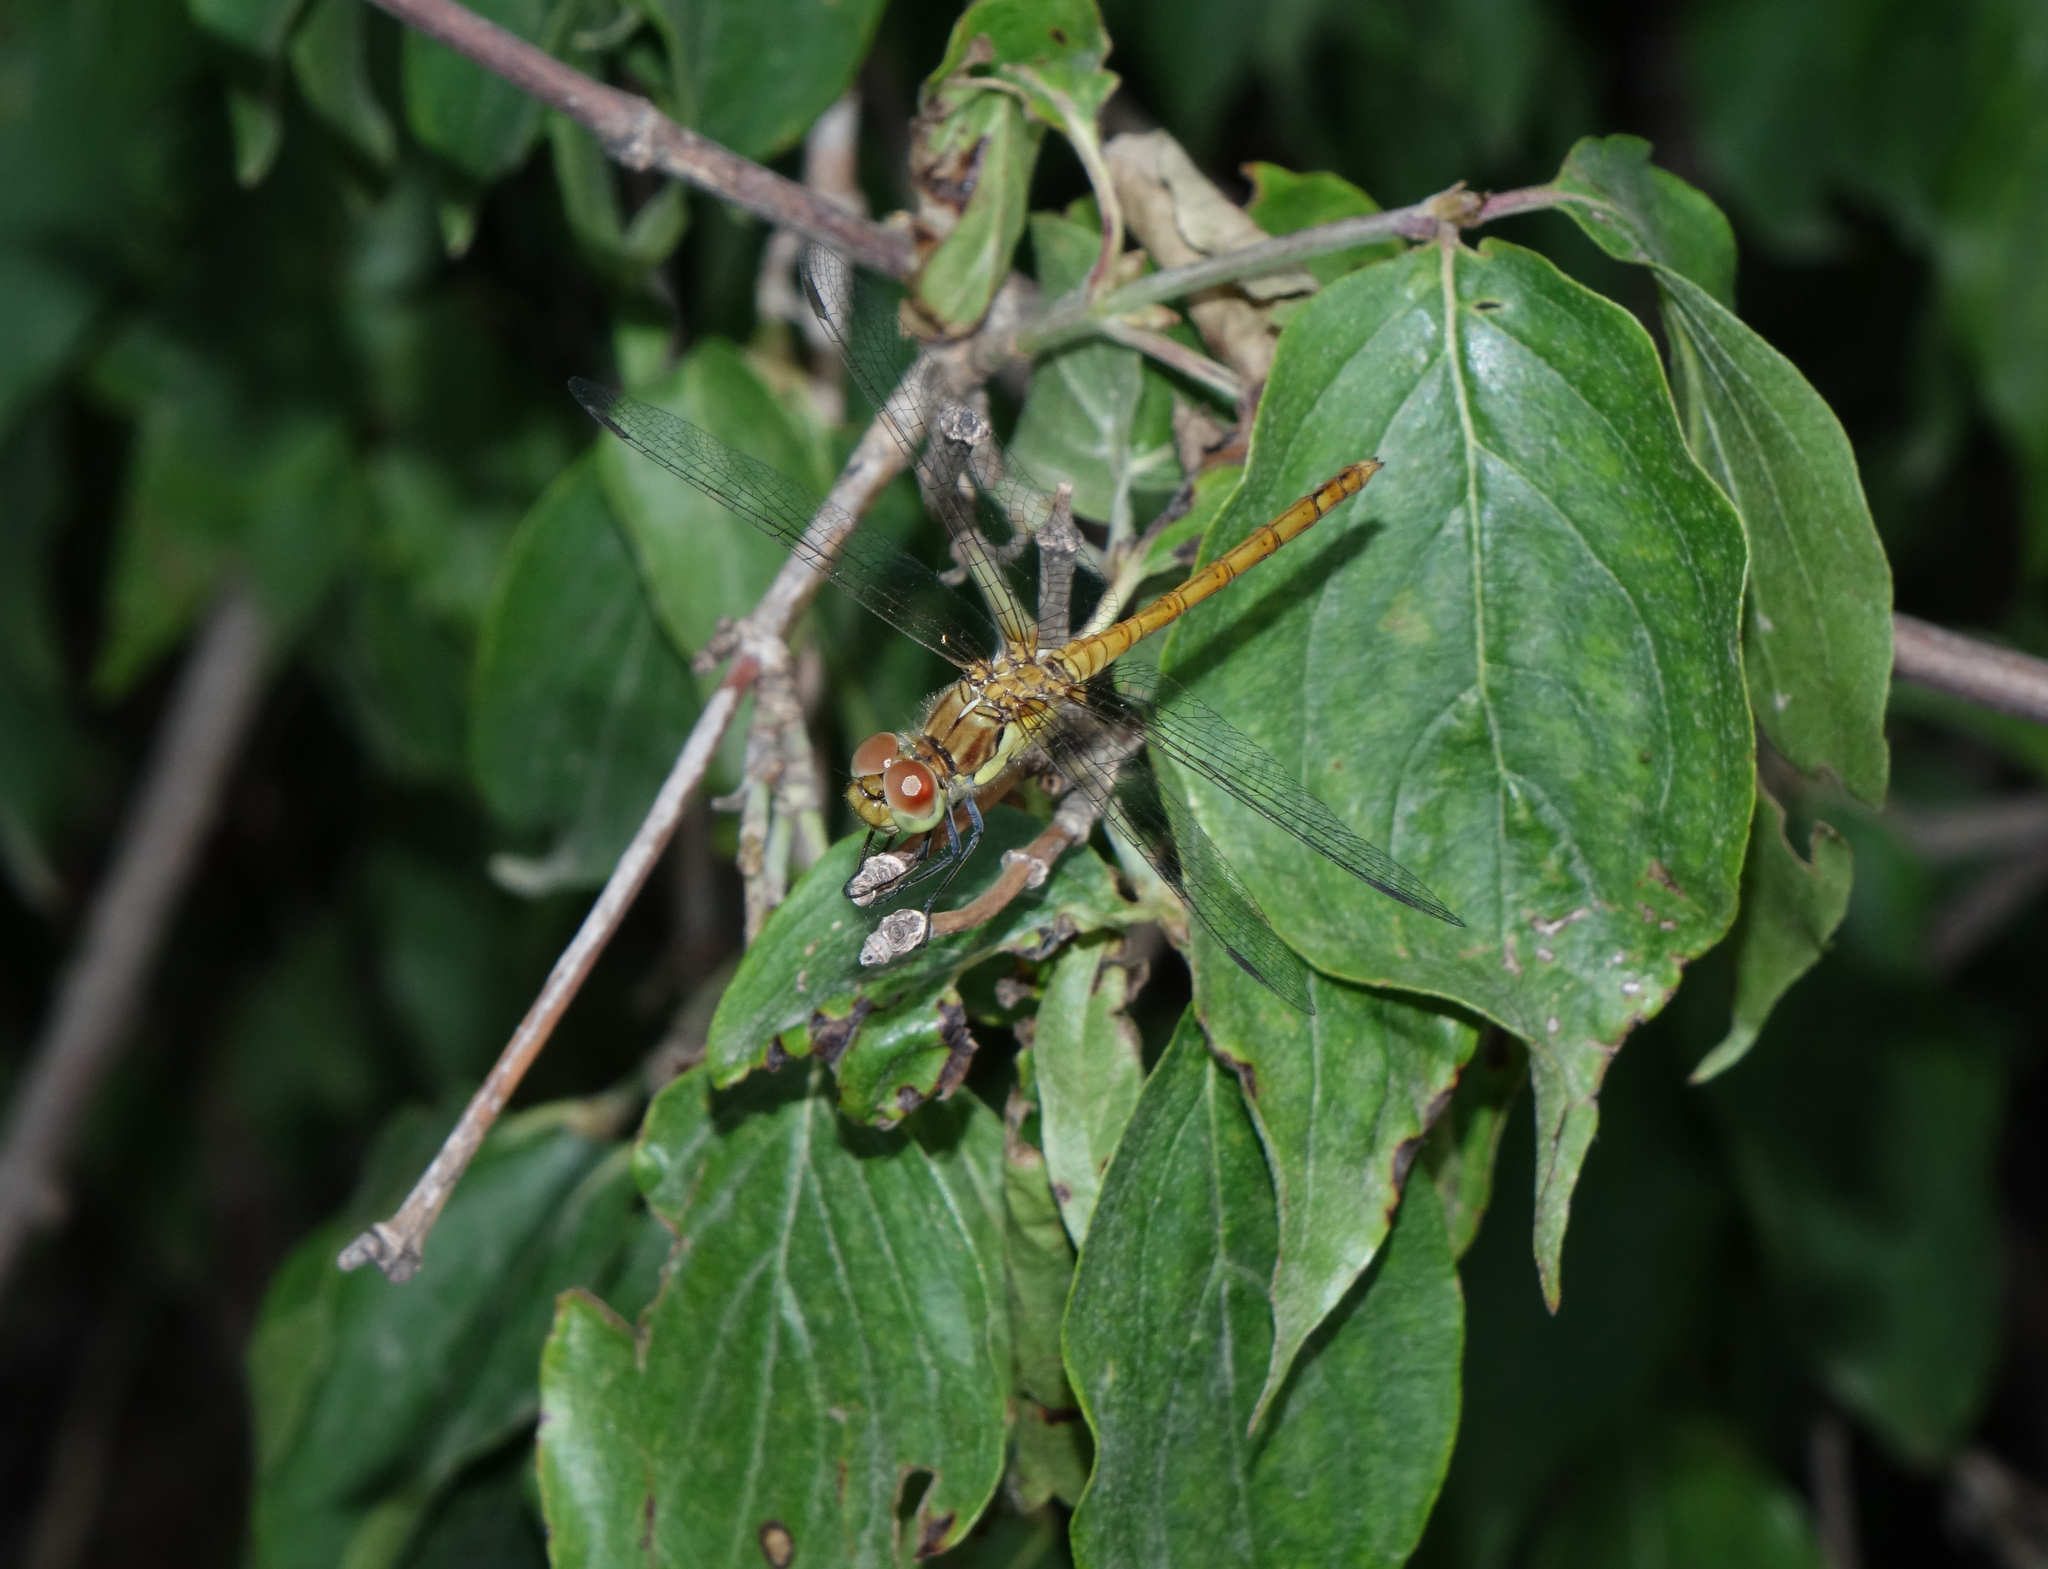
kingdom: Animalia
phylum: Arthropoda
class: Insecta
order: Odonata
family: Libellulidae
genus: Sympetrum
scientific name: Sympetrum striolatum
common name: Common darter
